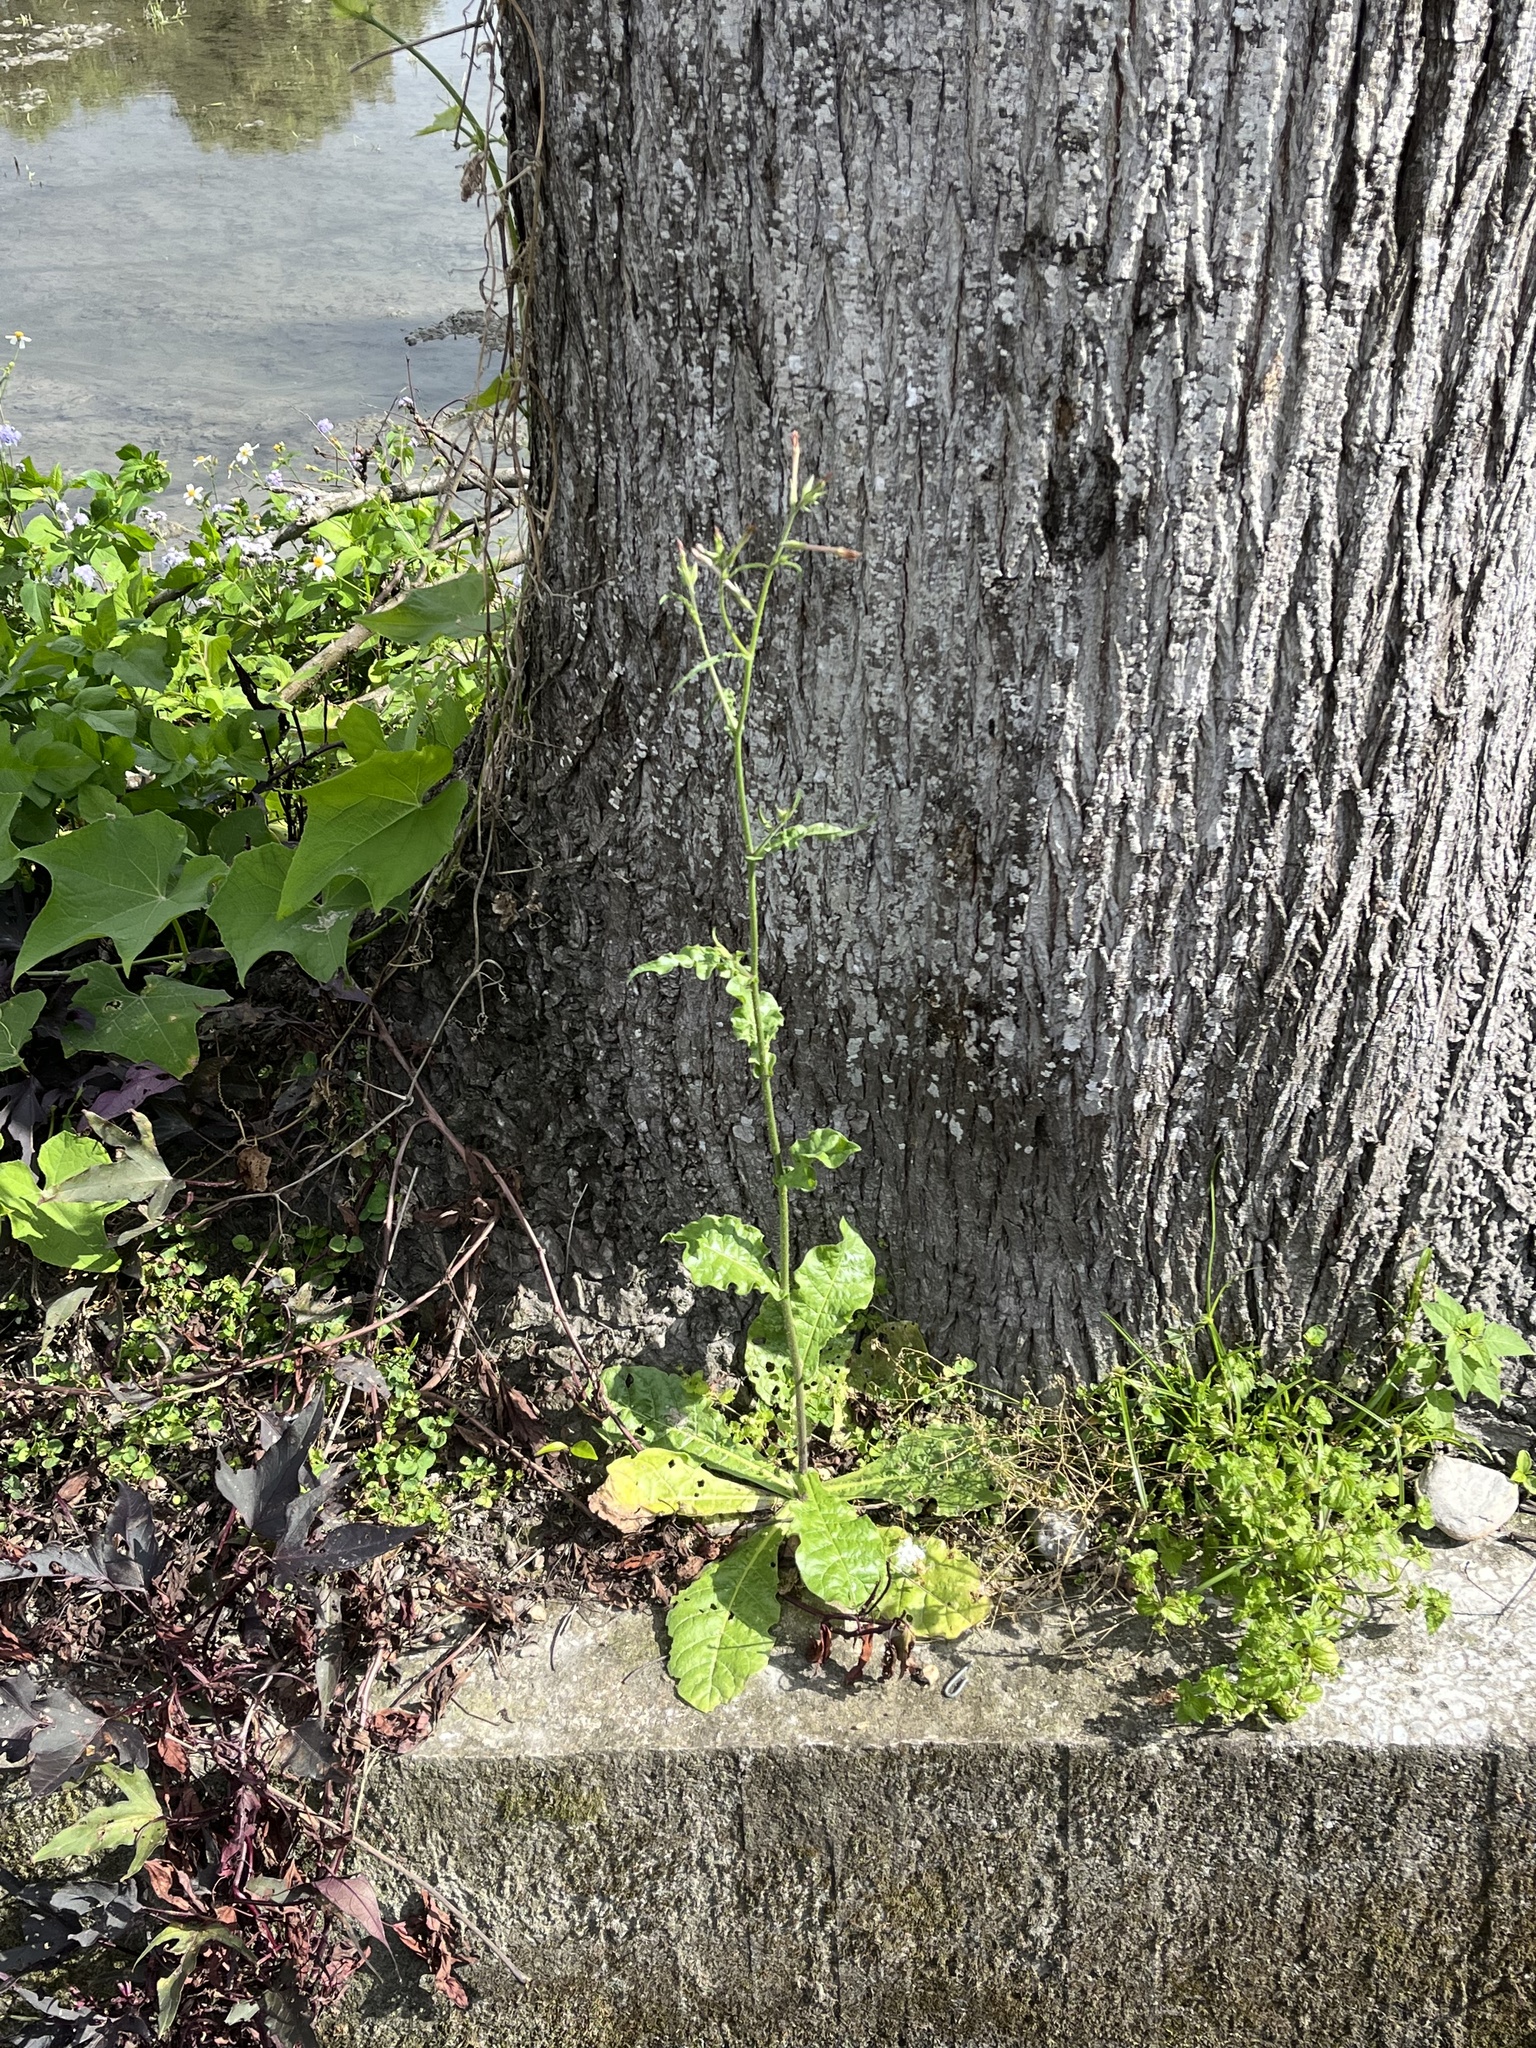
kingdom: Plantae
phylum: Tracheophyta
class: Magnoliopsida
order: Solanales
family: Solanaceae
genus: Nicotiana
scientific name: Nicotiana plumbaginifolia
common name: Tex-mex tobacco
